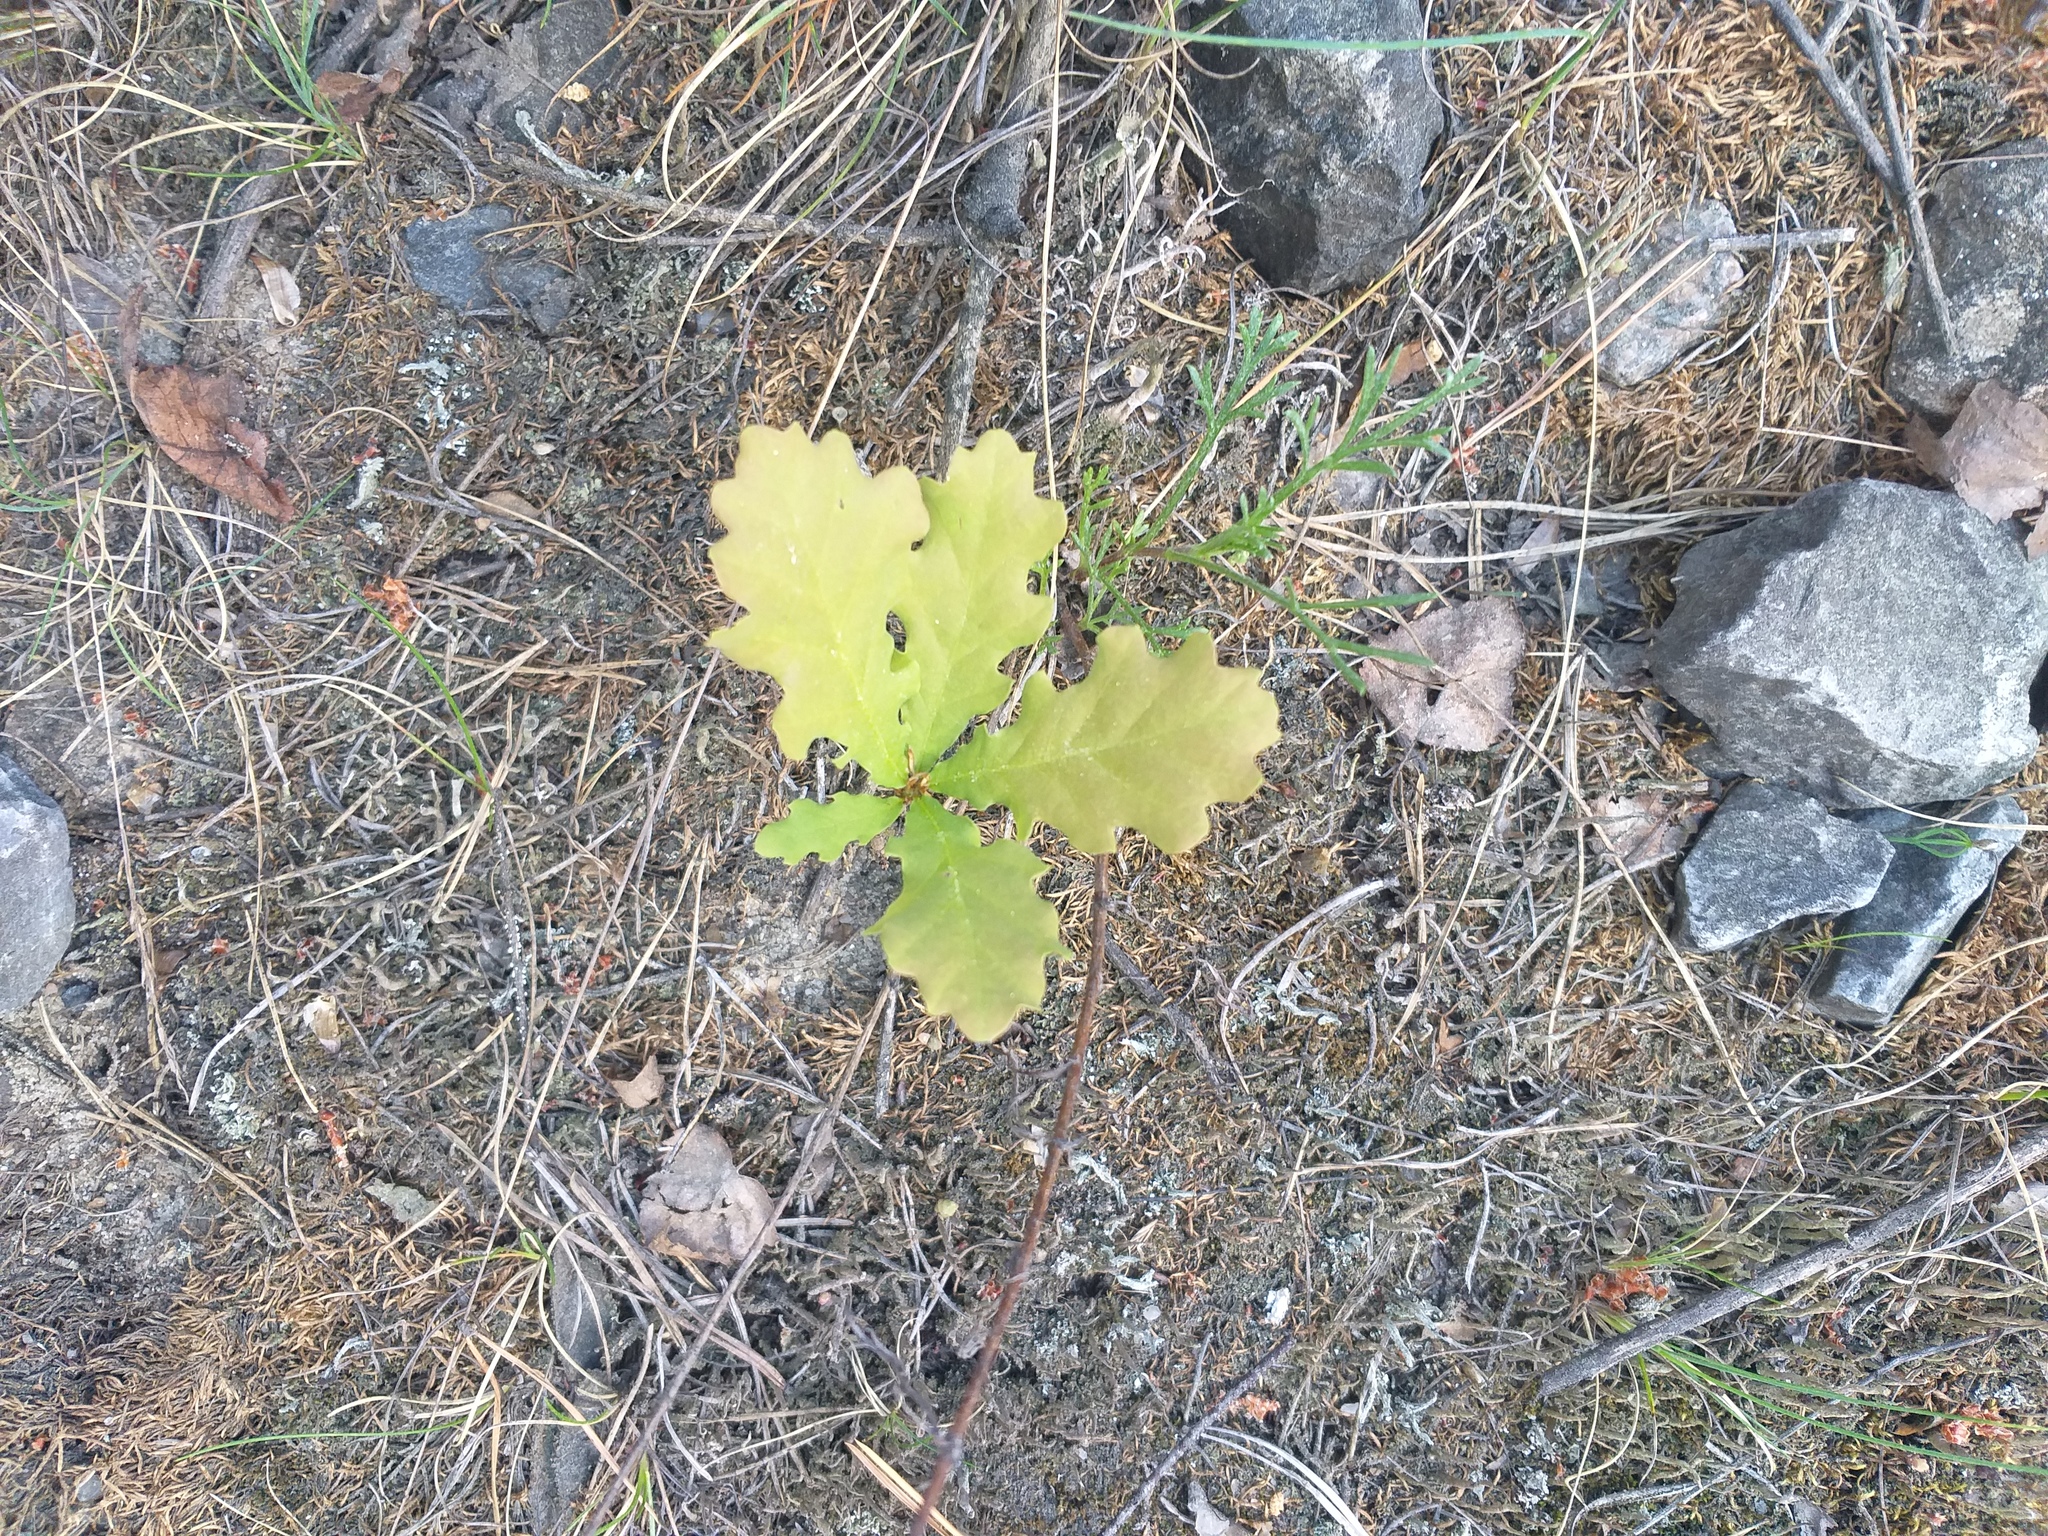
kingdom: Plantae
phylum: Tracheophyta
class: Magnoliopsida
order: Fagales
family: Fagaceae
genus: Quercus
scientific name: Quercus robur
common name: Pedunculate oak
